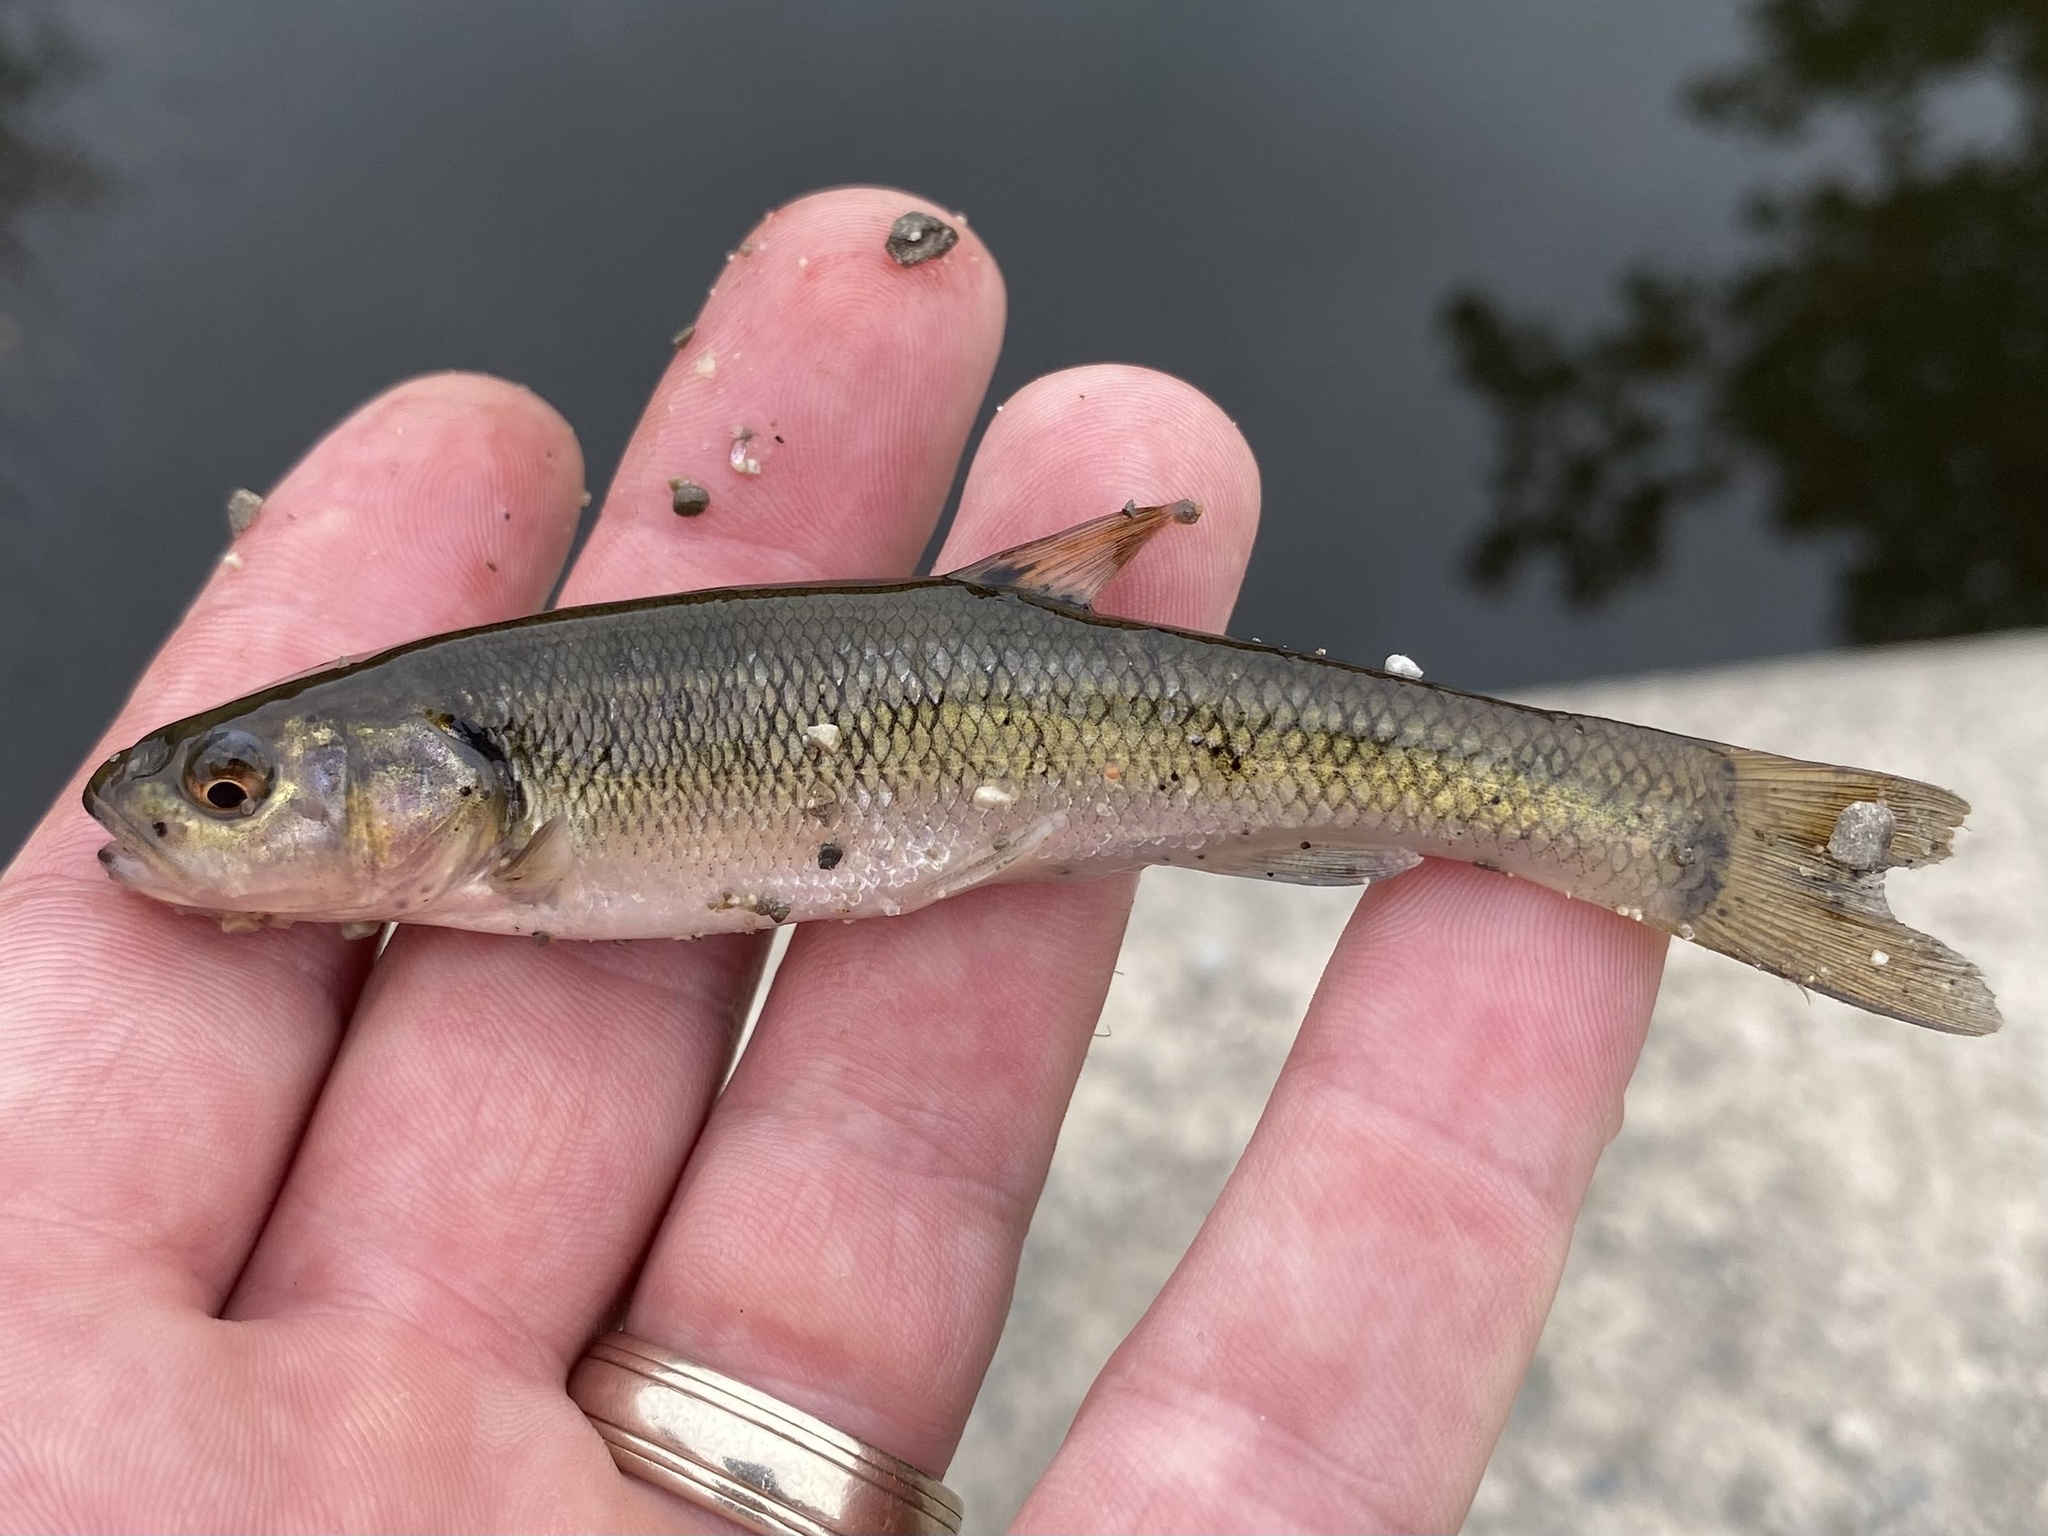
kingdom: Animalia
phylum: Chordata
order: Cypriniformes
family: Cyprinidae
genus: Semotilus
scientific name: Semotilus atromaculatus
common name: Creek chub
